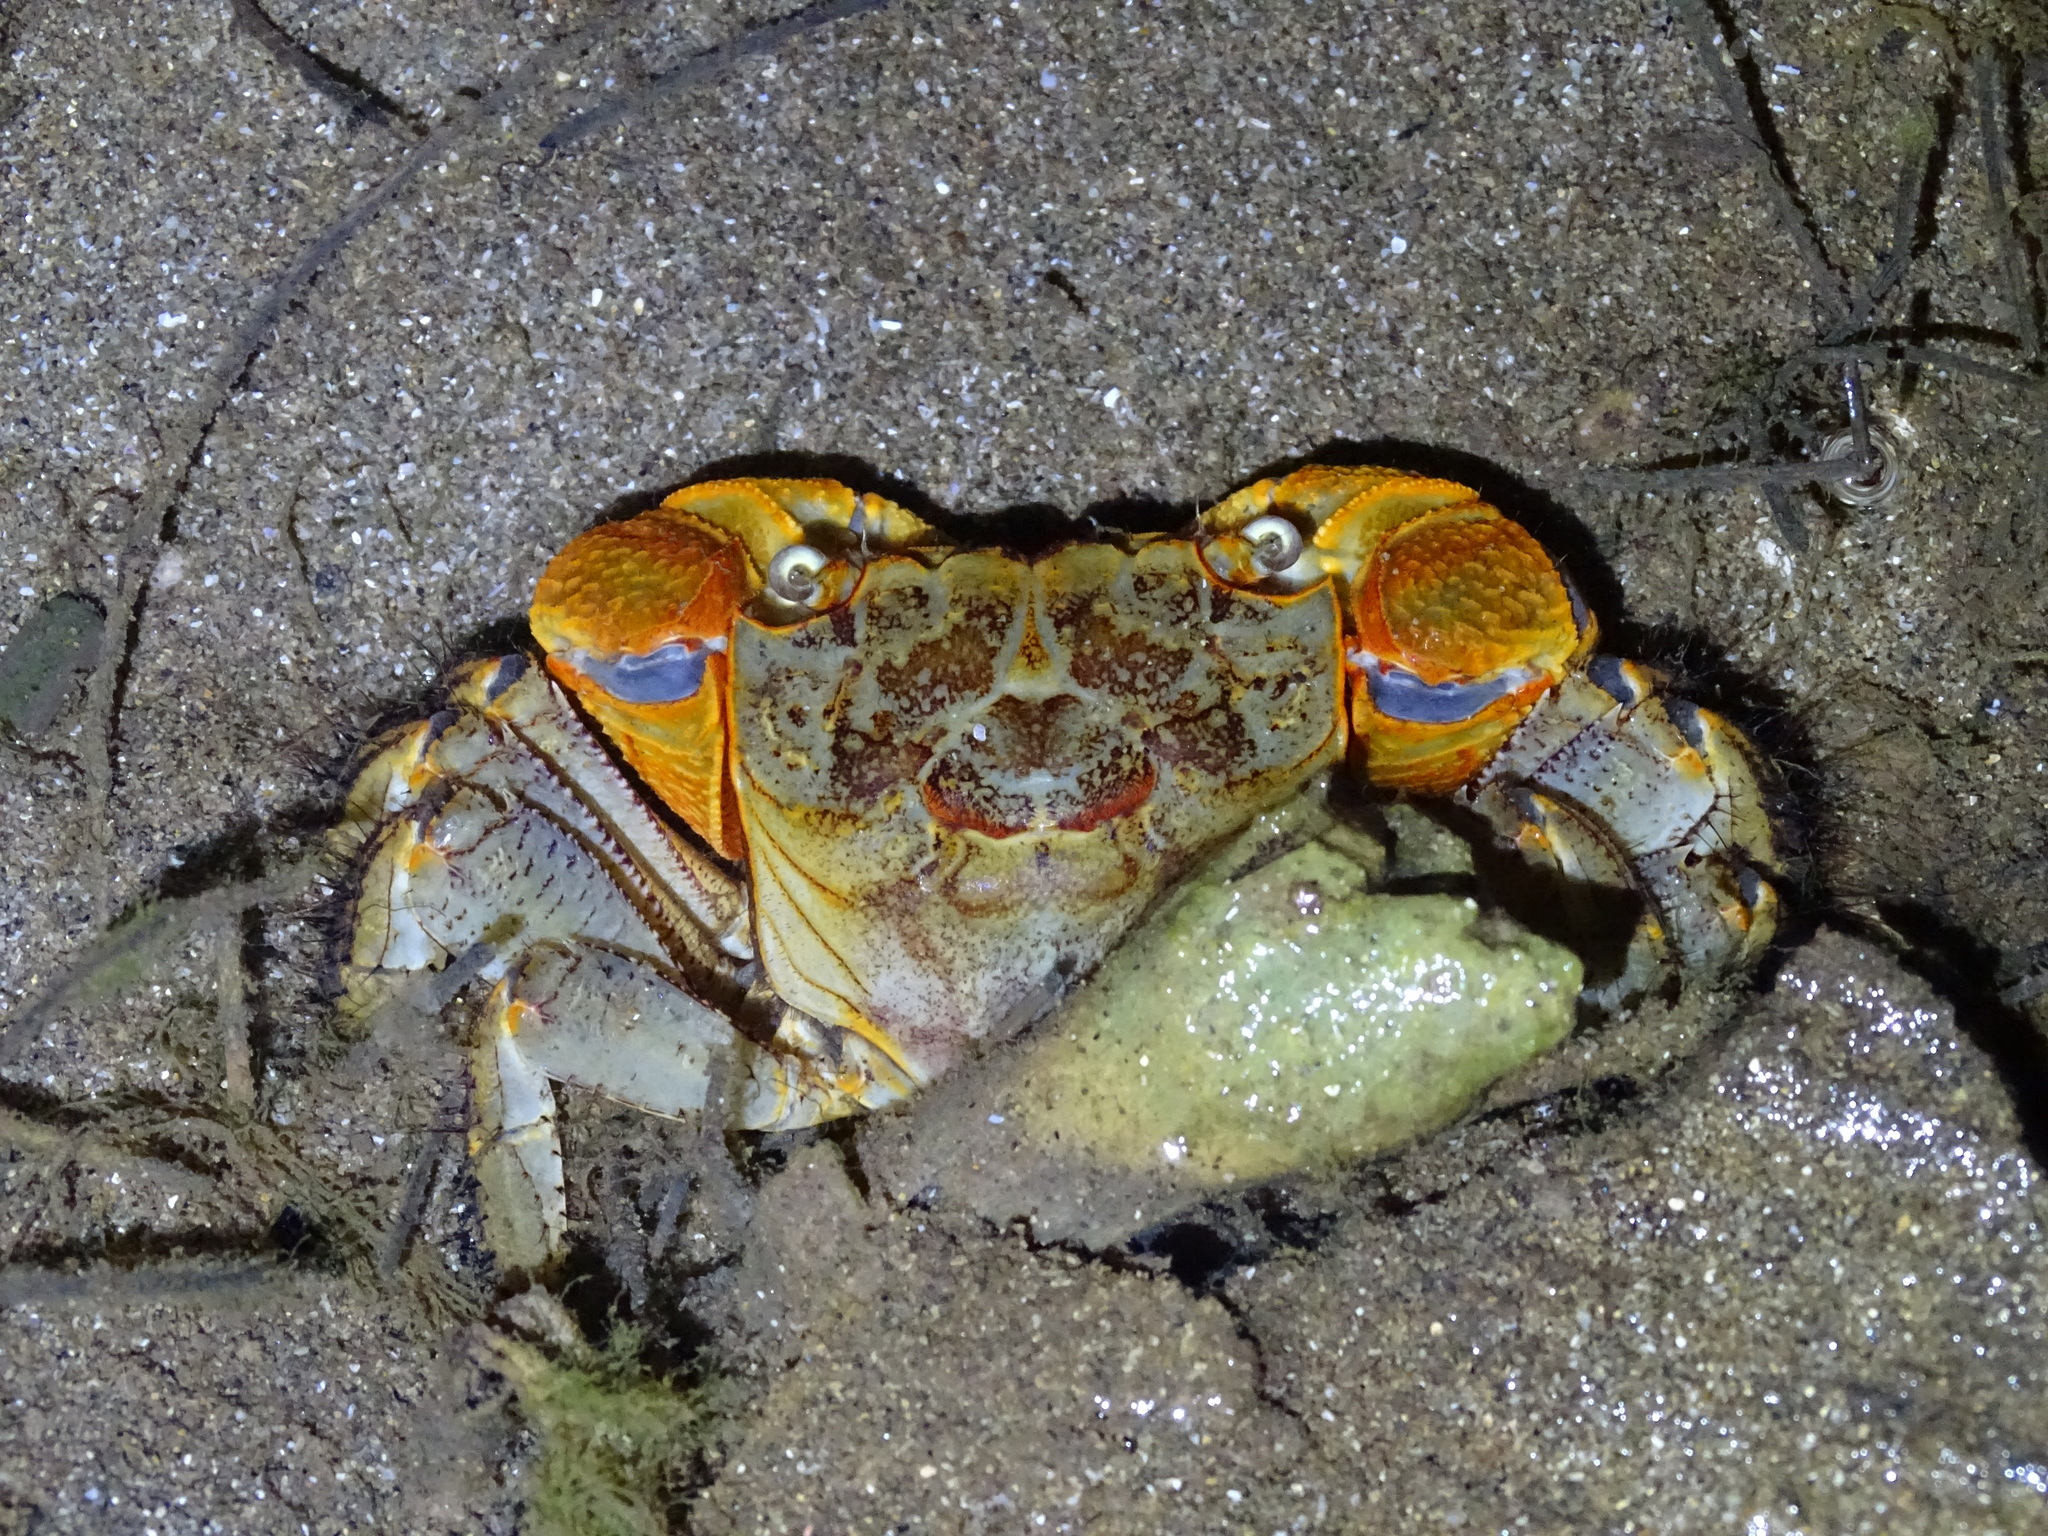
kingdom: Animalia
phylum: Arthropoda
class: Malacostraca
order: Decapoda
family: Sesarmidae
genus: Orisarma
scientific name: Orisarma dehaani
